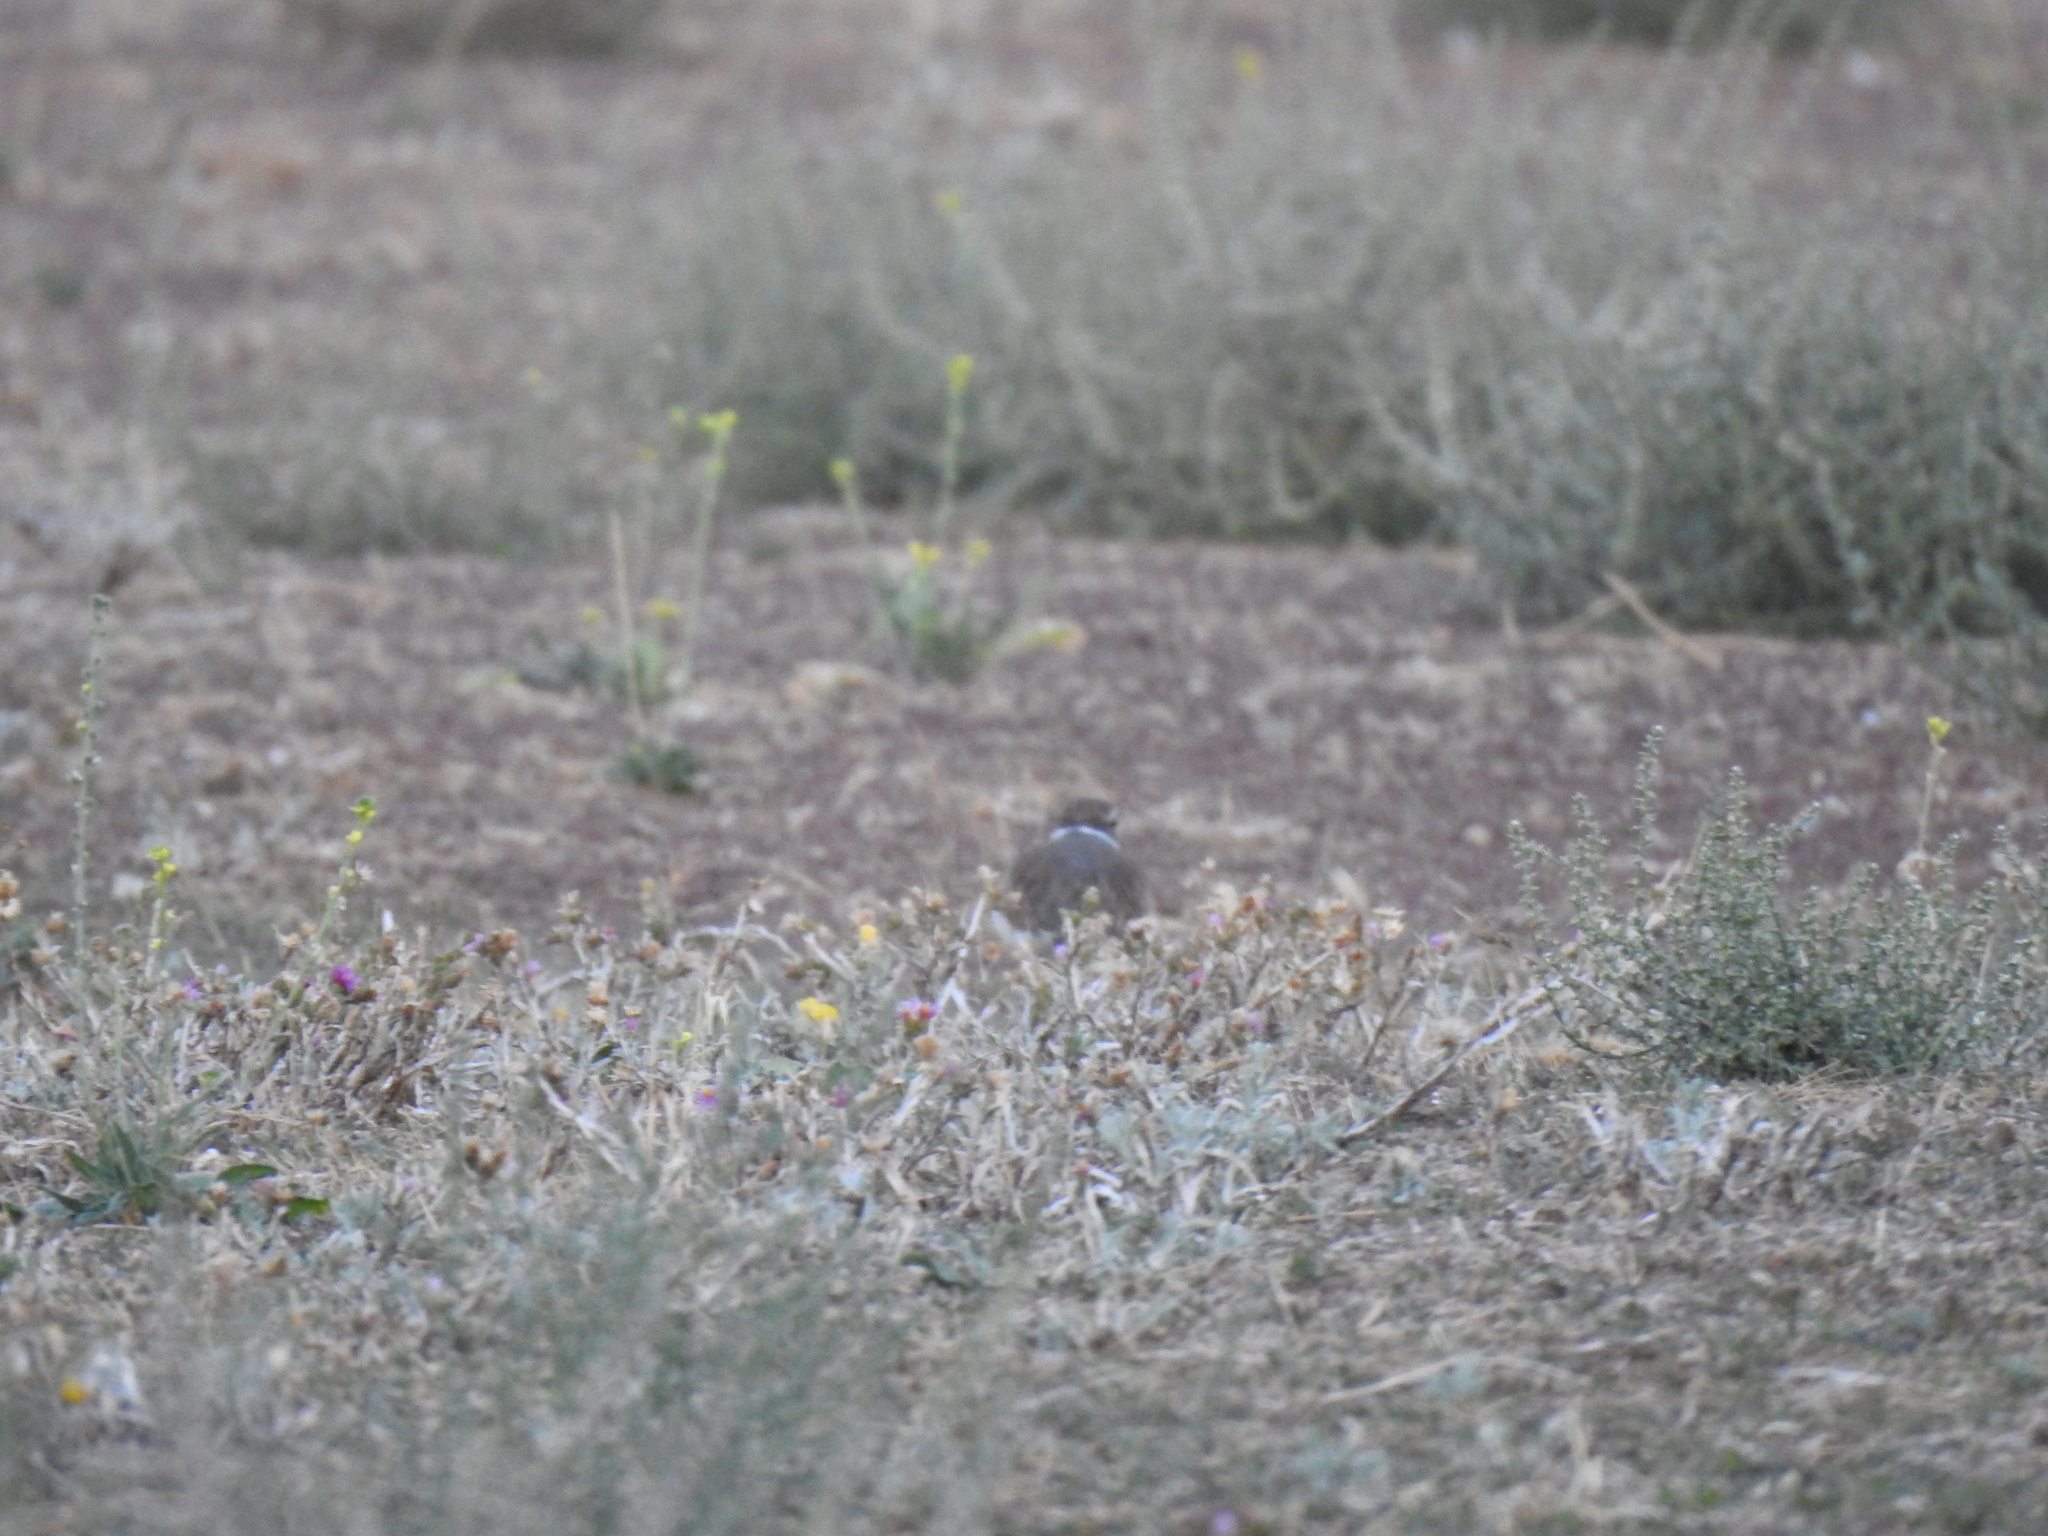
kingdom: Animalia
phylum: Chordata
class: Aves
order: Charadriiformes
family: Charadriidae
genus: Charadrius
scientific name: Charadrius vociferus
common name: Killdeer
